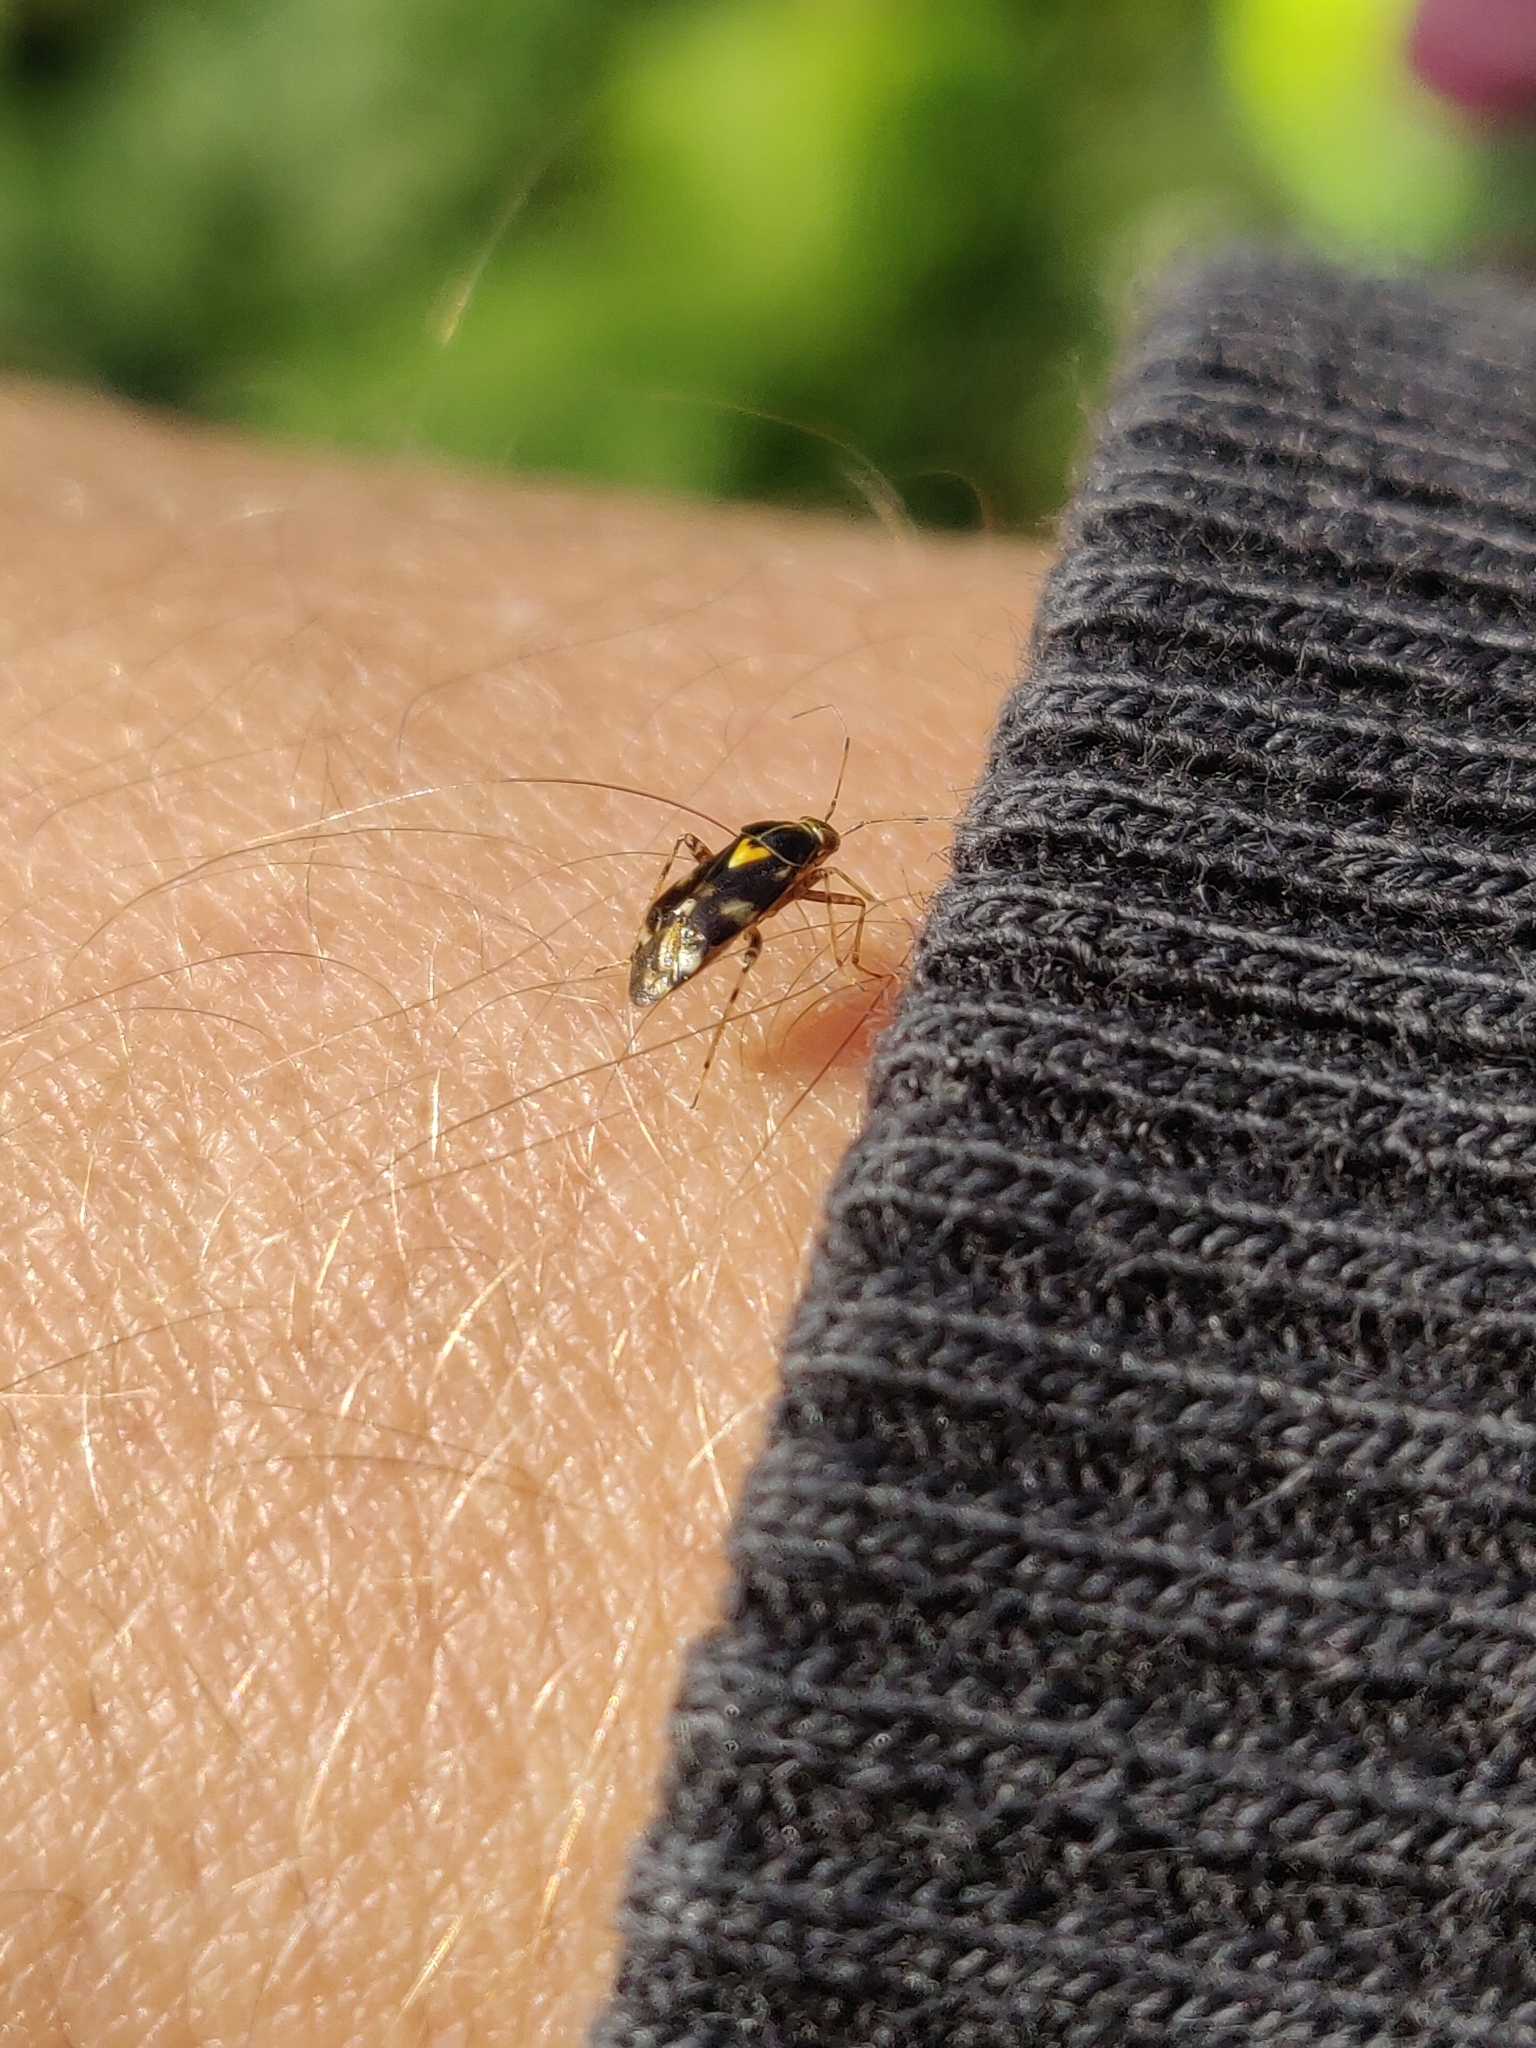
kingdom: Animalia
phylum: Arthropoda
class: Insecta
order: Hemiptera
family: Miridae
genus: Liocoris
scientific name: Liocoris tripustulatus
